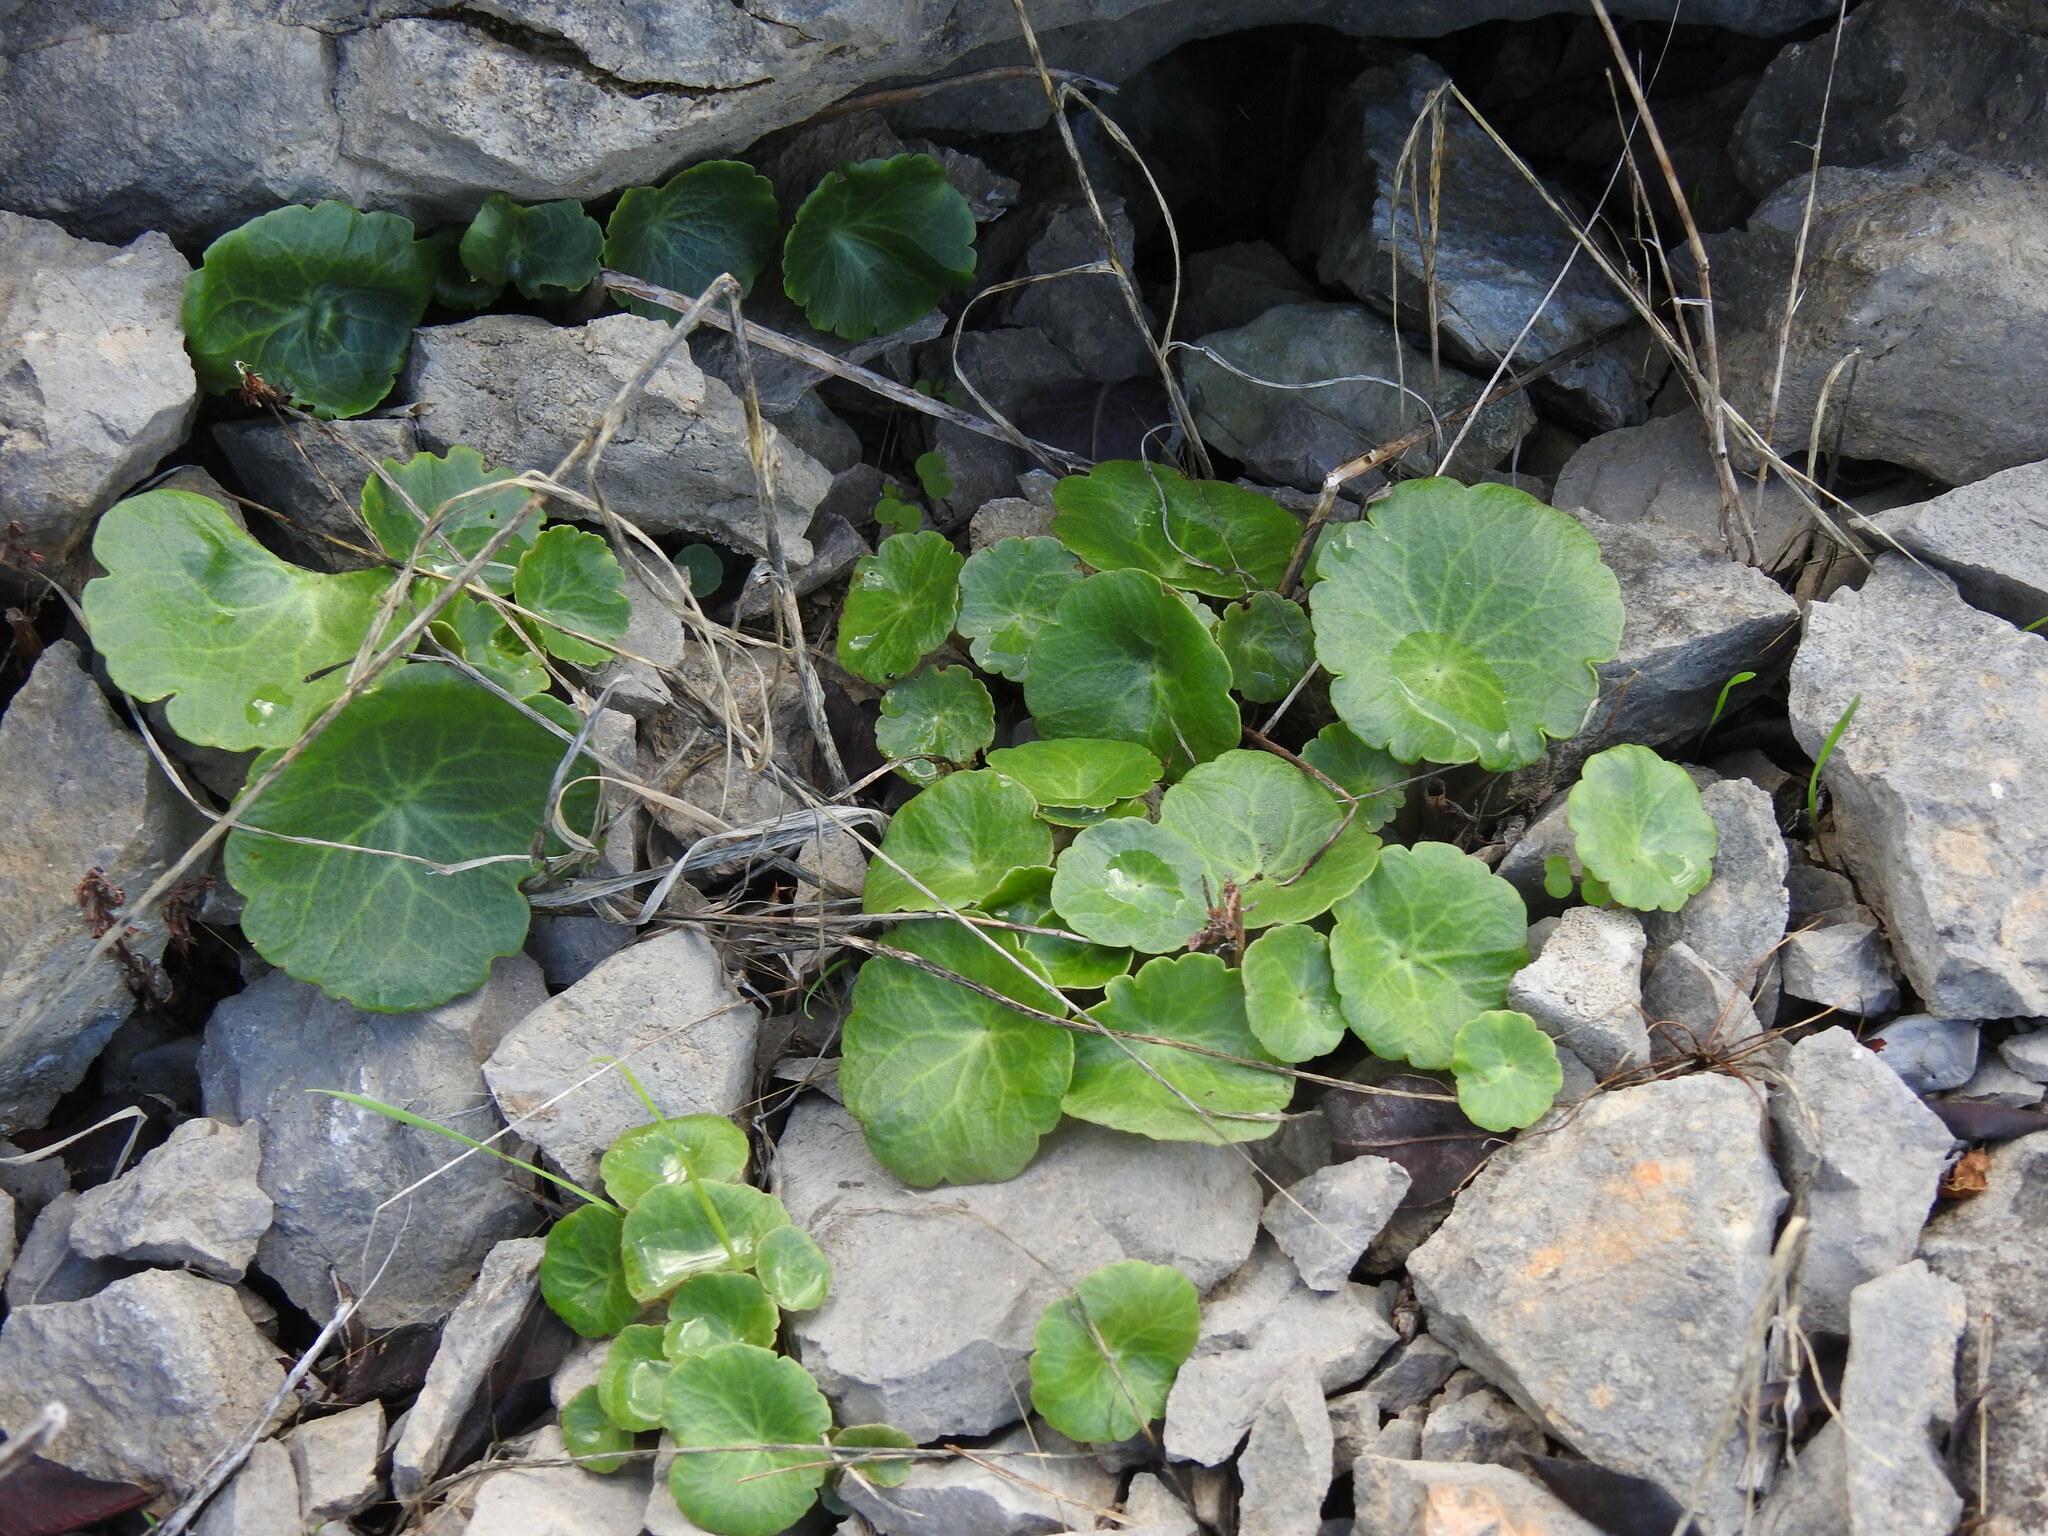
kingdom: Plantae
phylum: Tracheophyta
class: Magnoliopsida
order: Saxifragales
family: Crassulaceae
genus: Umbilicus
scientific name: Umbilicus rupestris
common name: Navelwort
